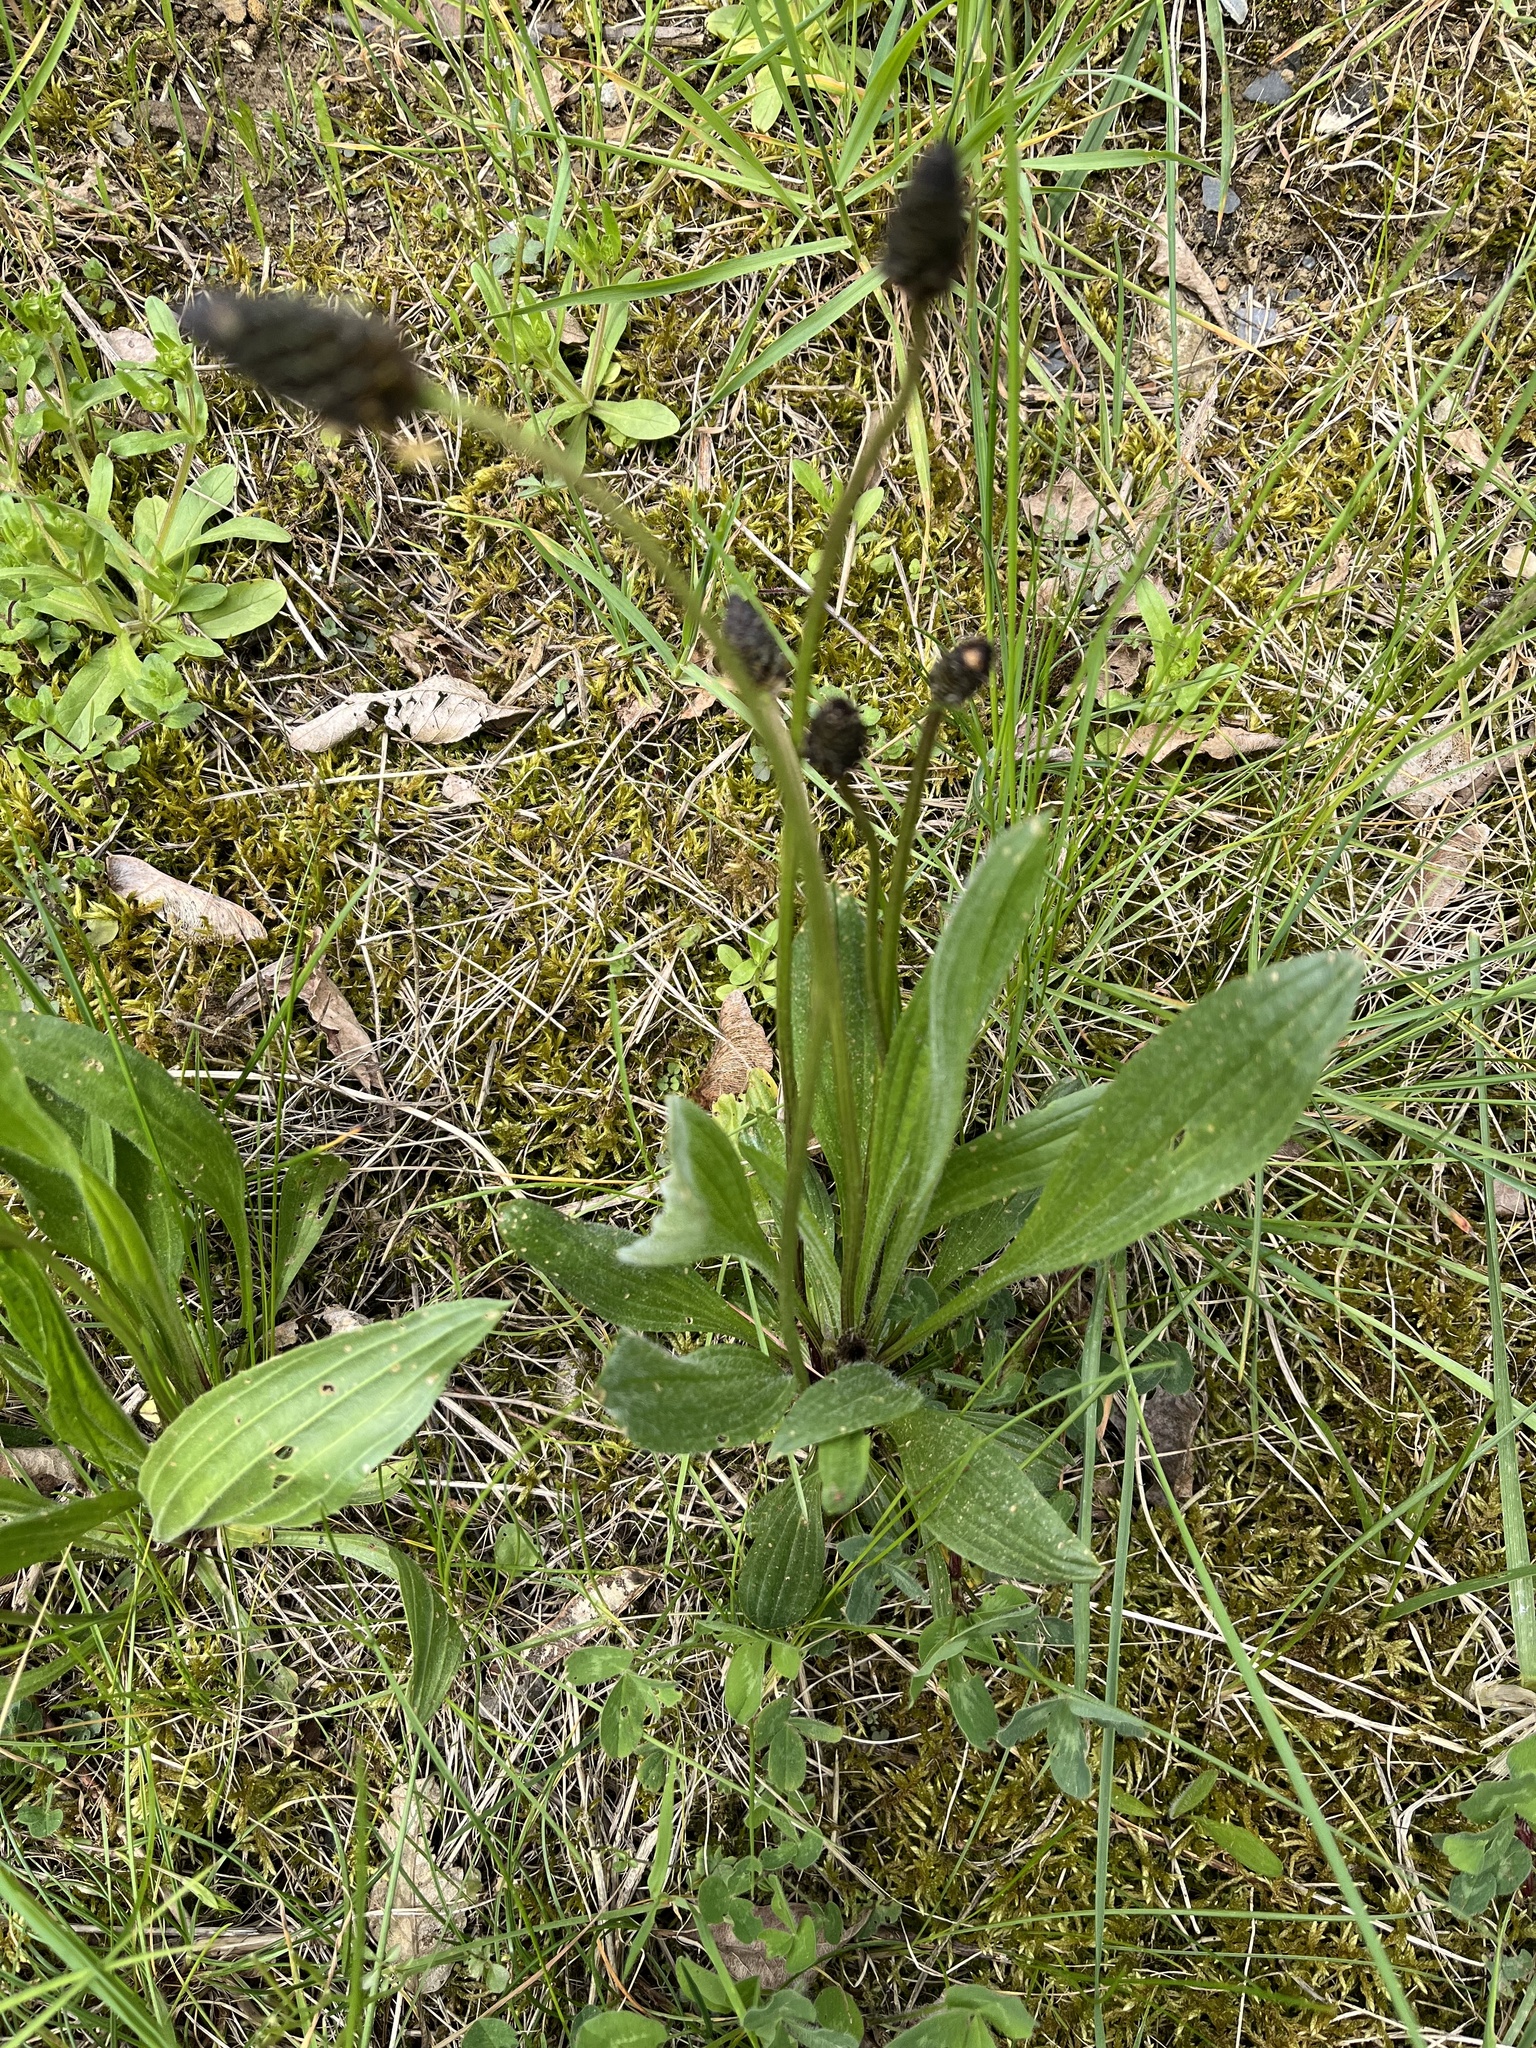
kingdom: Plantae
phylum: Tracheophyta
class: Magnoliopsida
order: Lamiales
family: Plantaginaceae
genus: Plantago
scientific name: Plantago lanceolata
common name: Ribwort plantain
